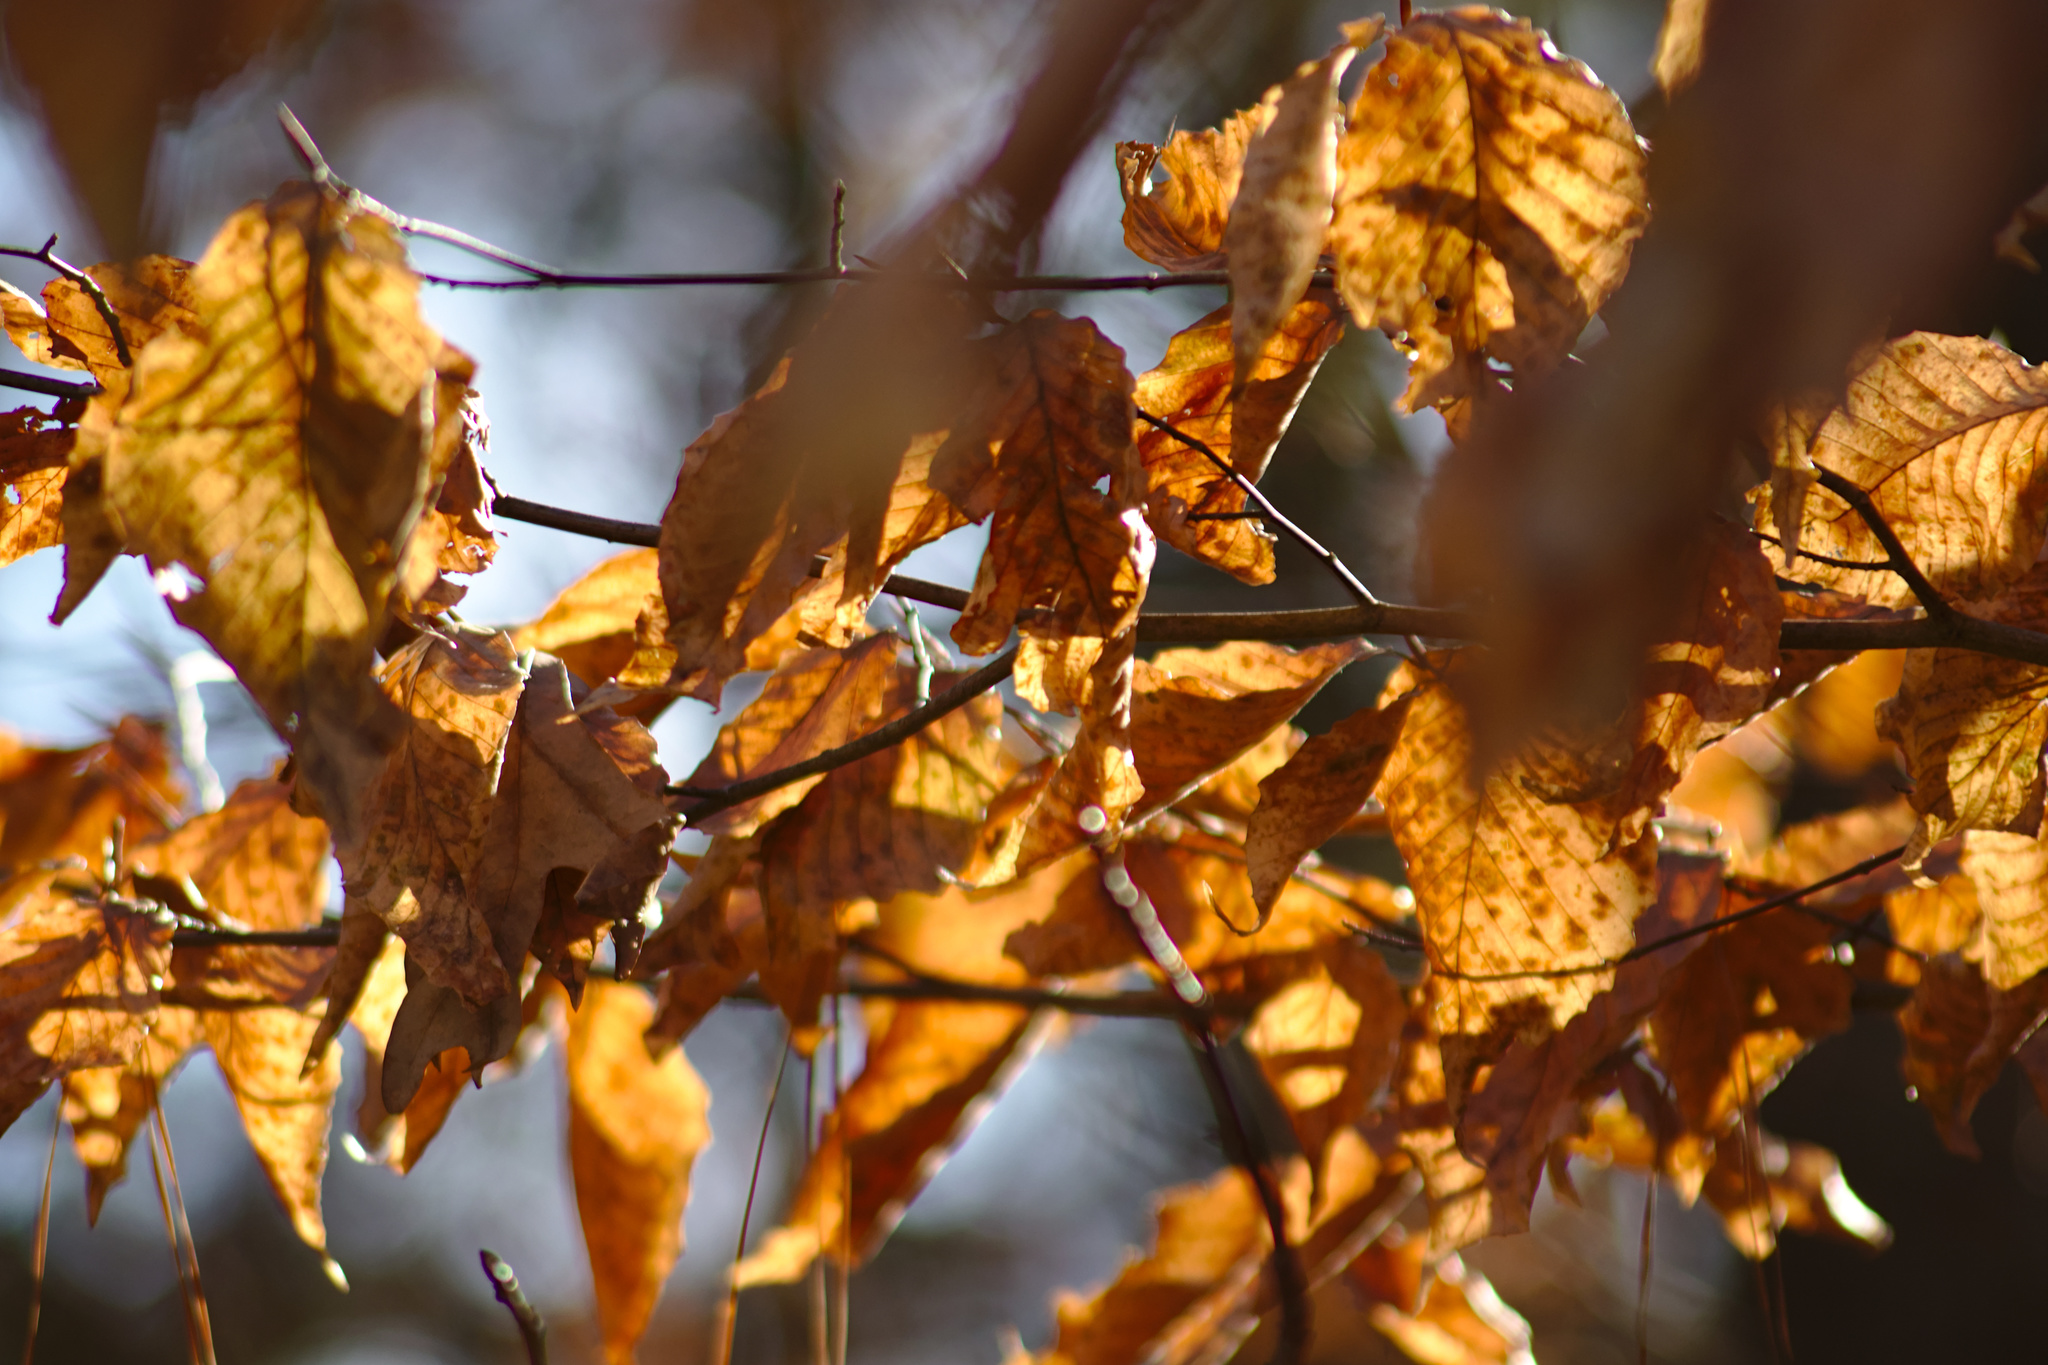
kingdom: Plantae
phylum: Tracheophyta
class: Magnoliopsida
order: Fagales
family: Fagaceae
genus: Fagus
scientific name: Fagus grandifolia
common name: American beech
